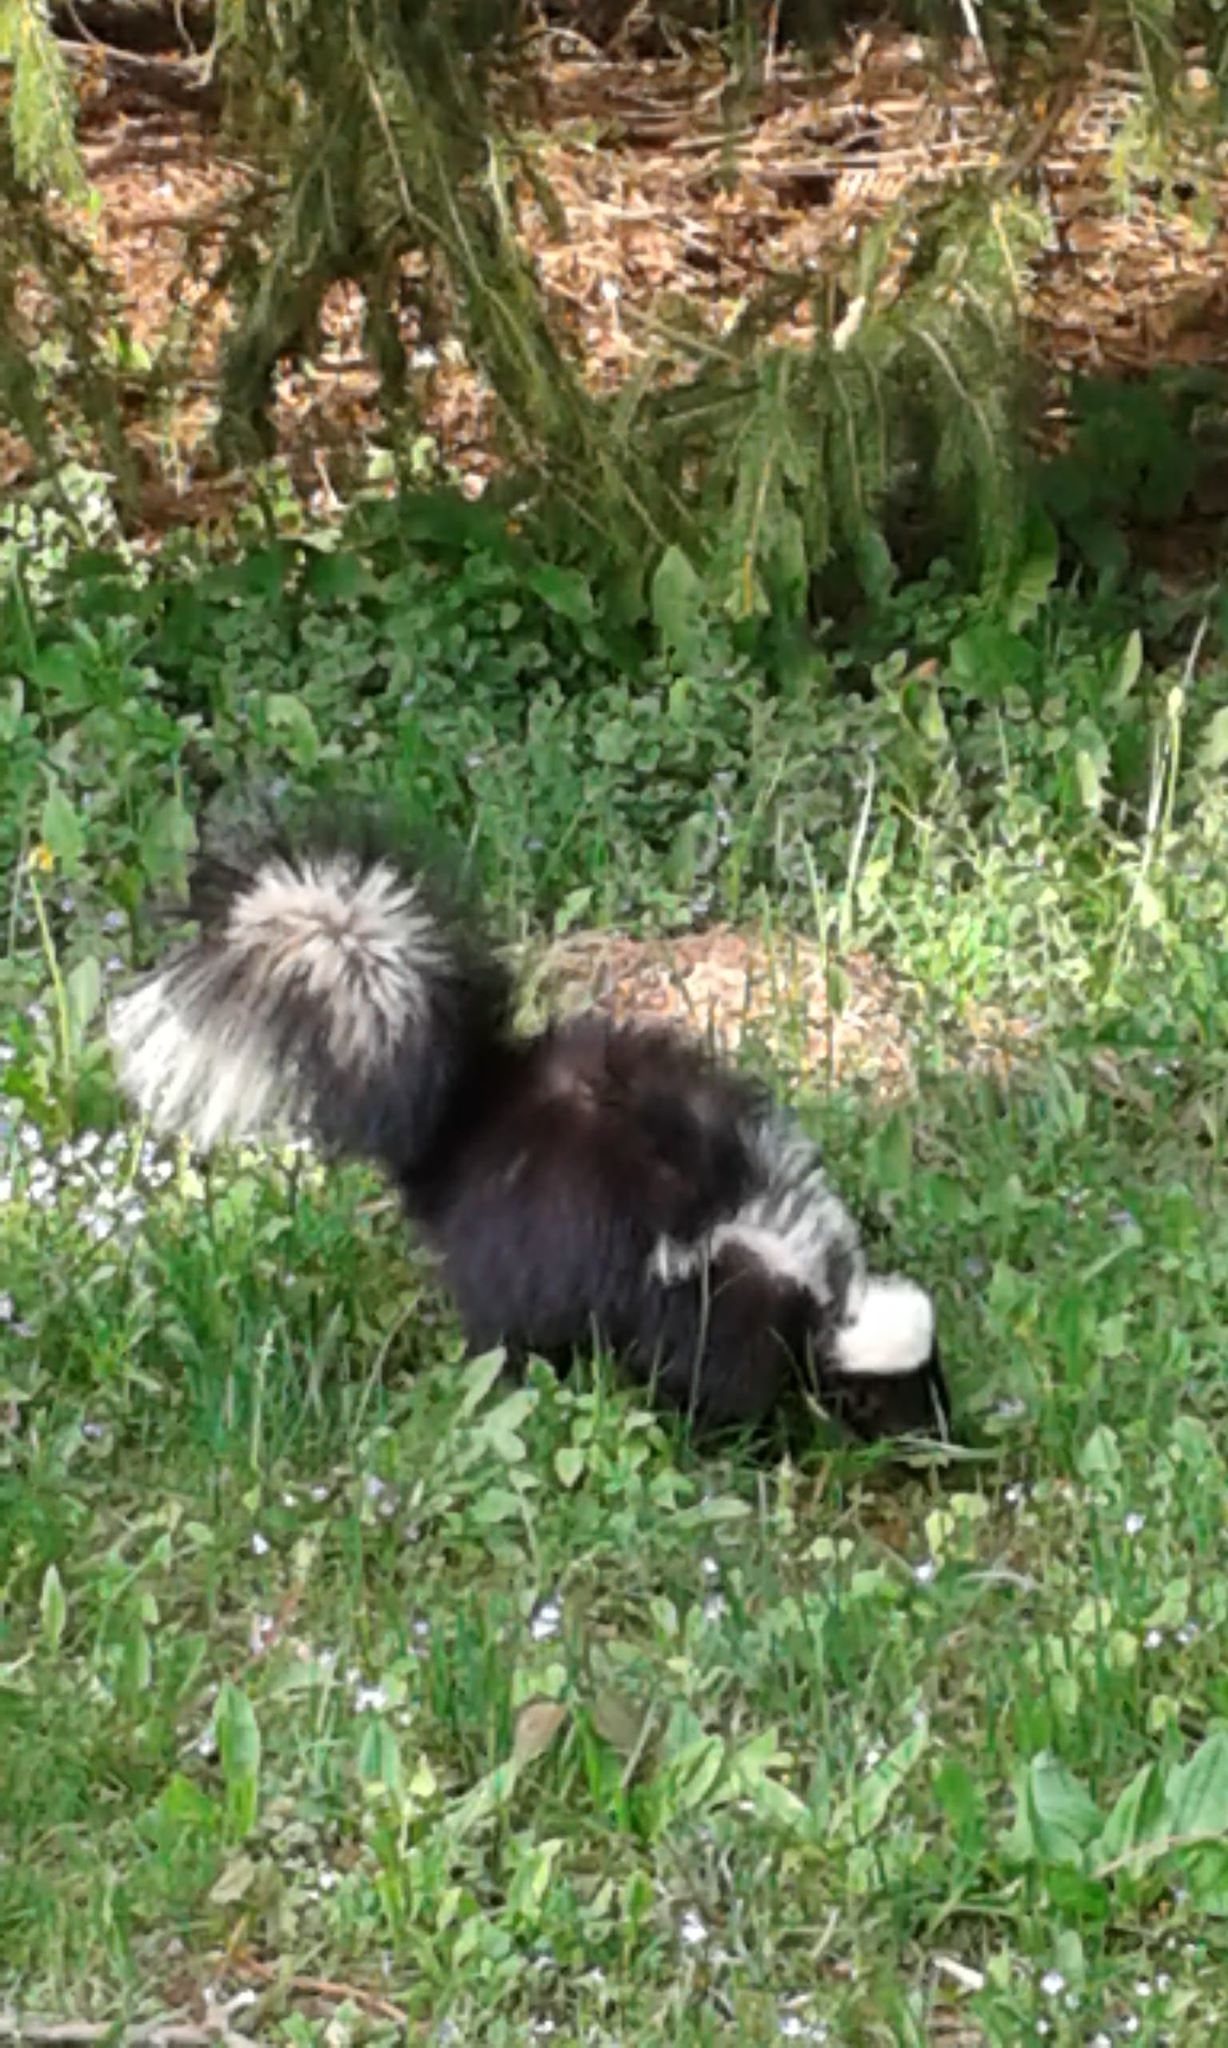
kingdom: Animalia
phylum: Chordata
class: Mammalia
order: Carnivora
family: Mephitidae
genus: Mephitis
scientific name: Mephitis mephitis
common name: Striped skunk
